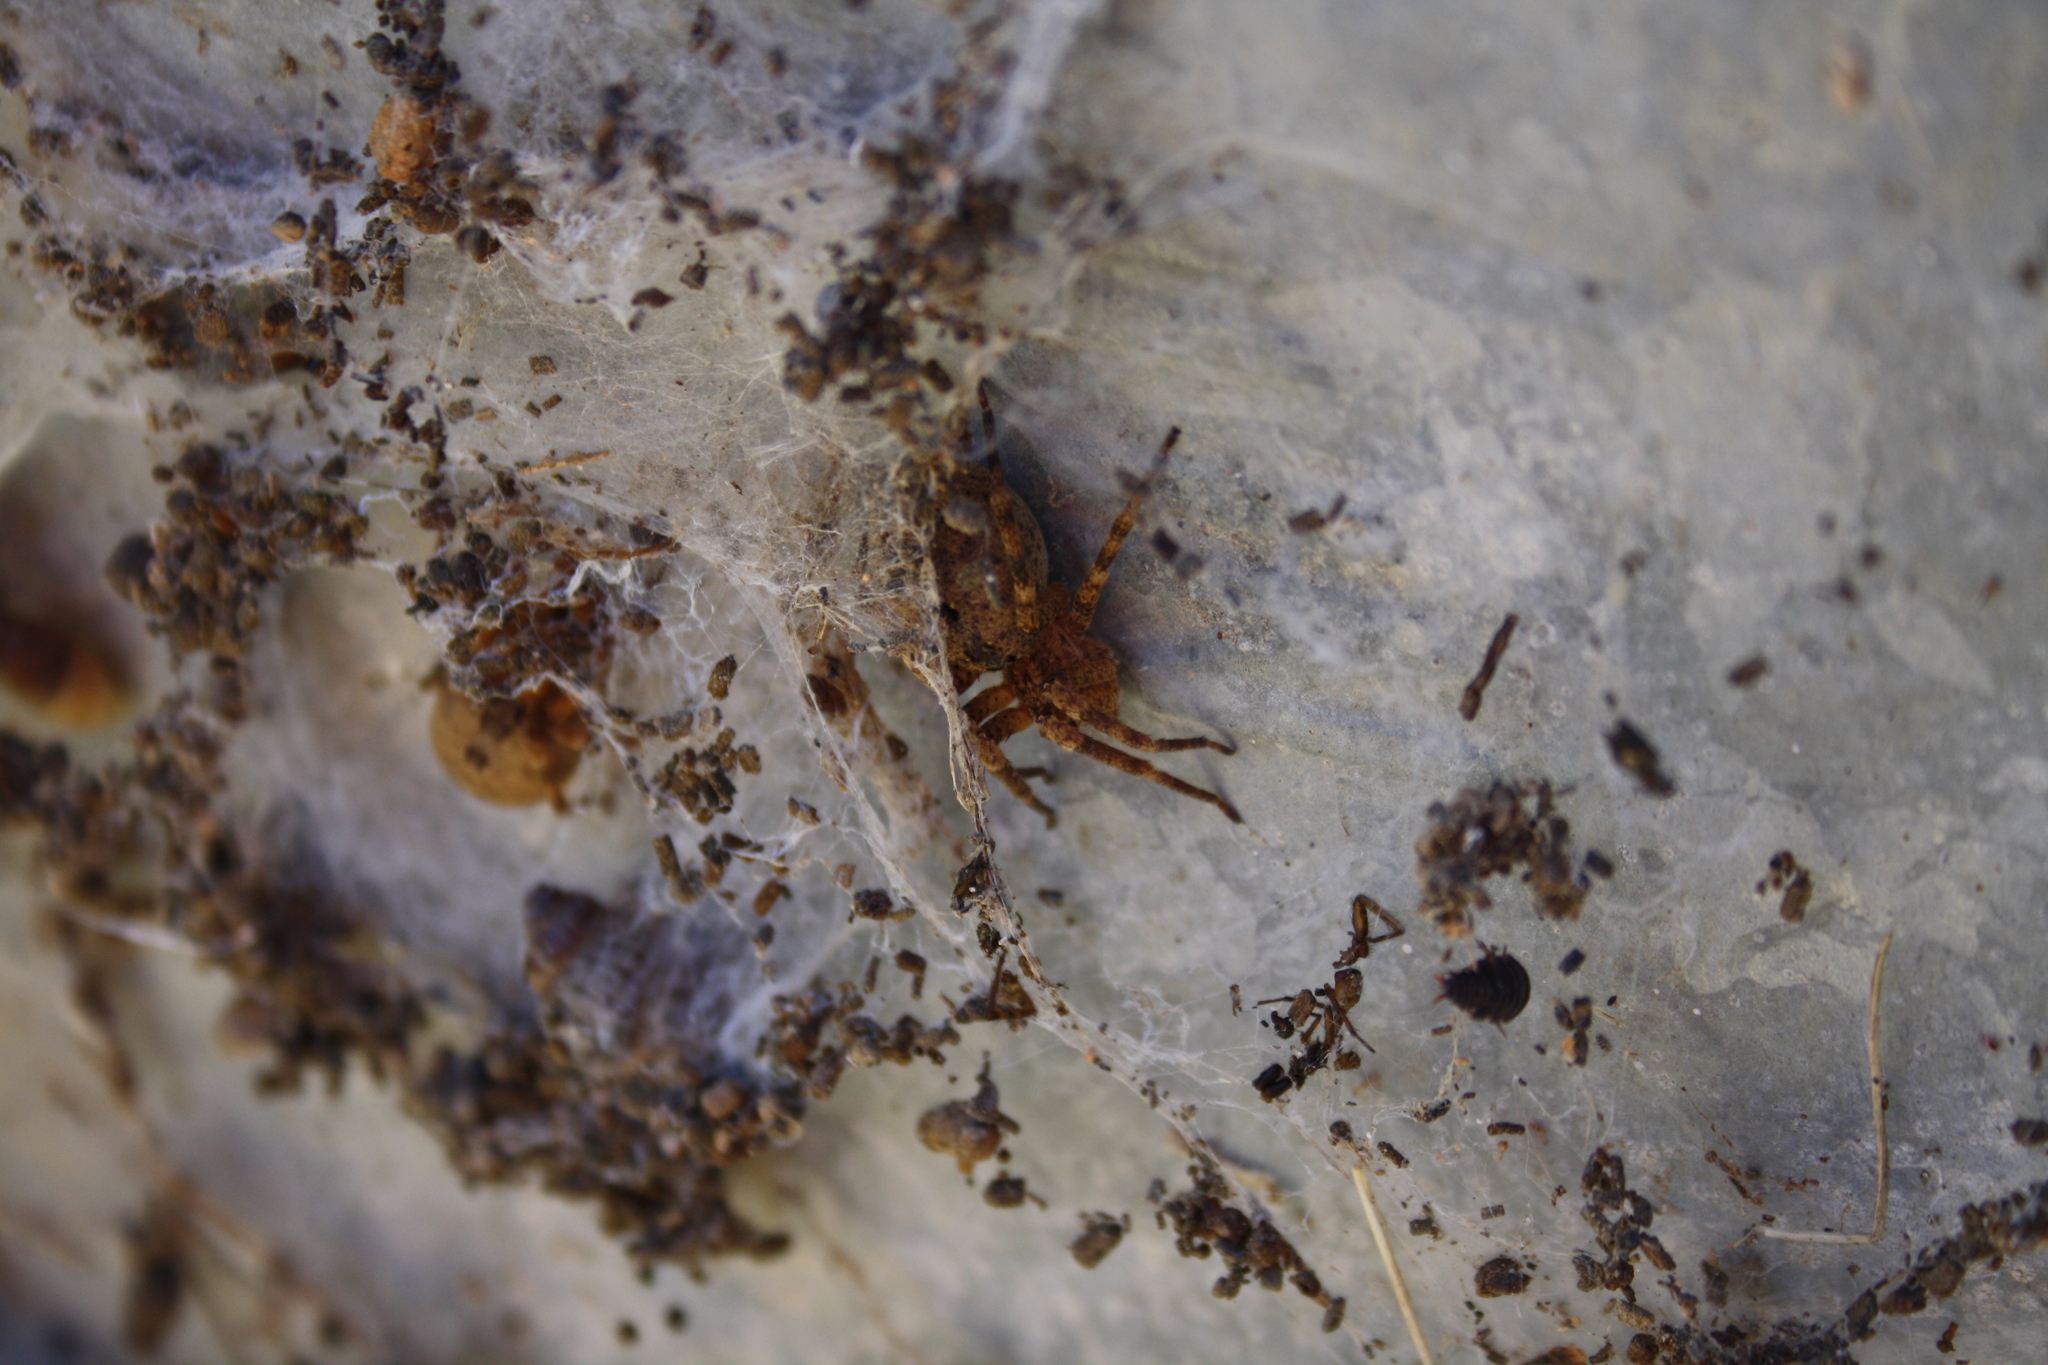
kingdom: Animalia
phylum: Arthropoda
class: Arachnida
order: Araneae
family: Zoropsidae
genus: Zoropsis
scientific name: Zoropsis lutea
